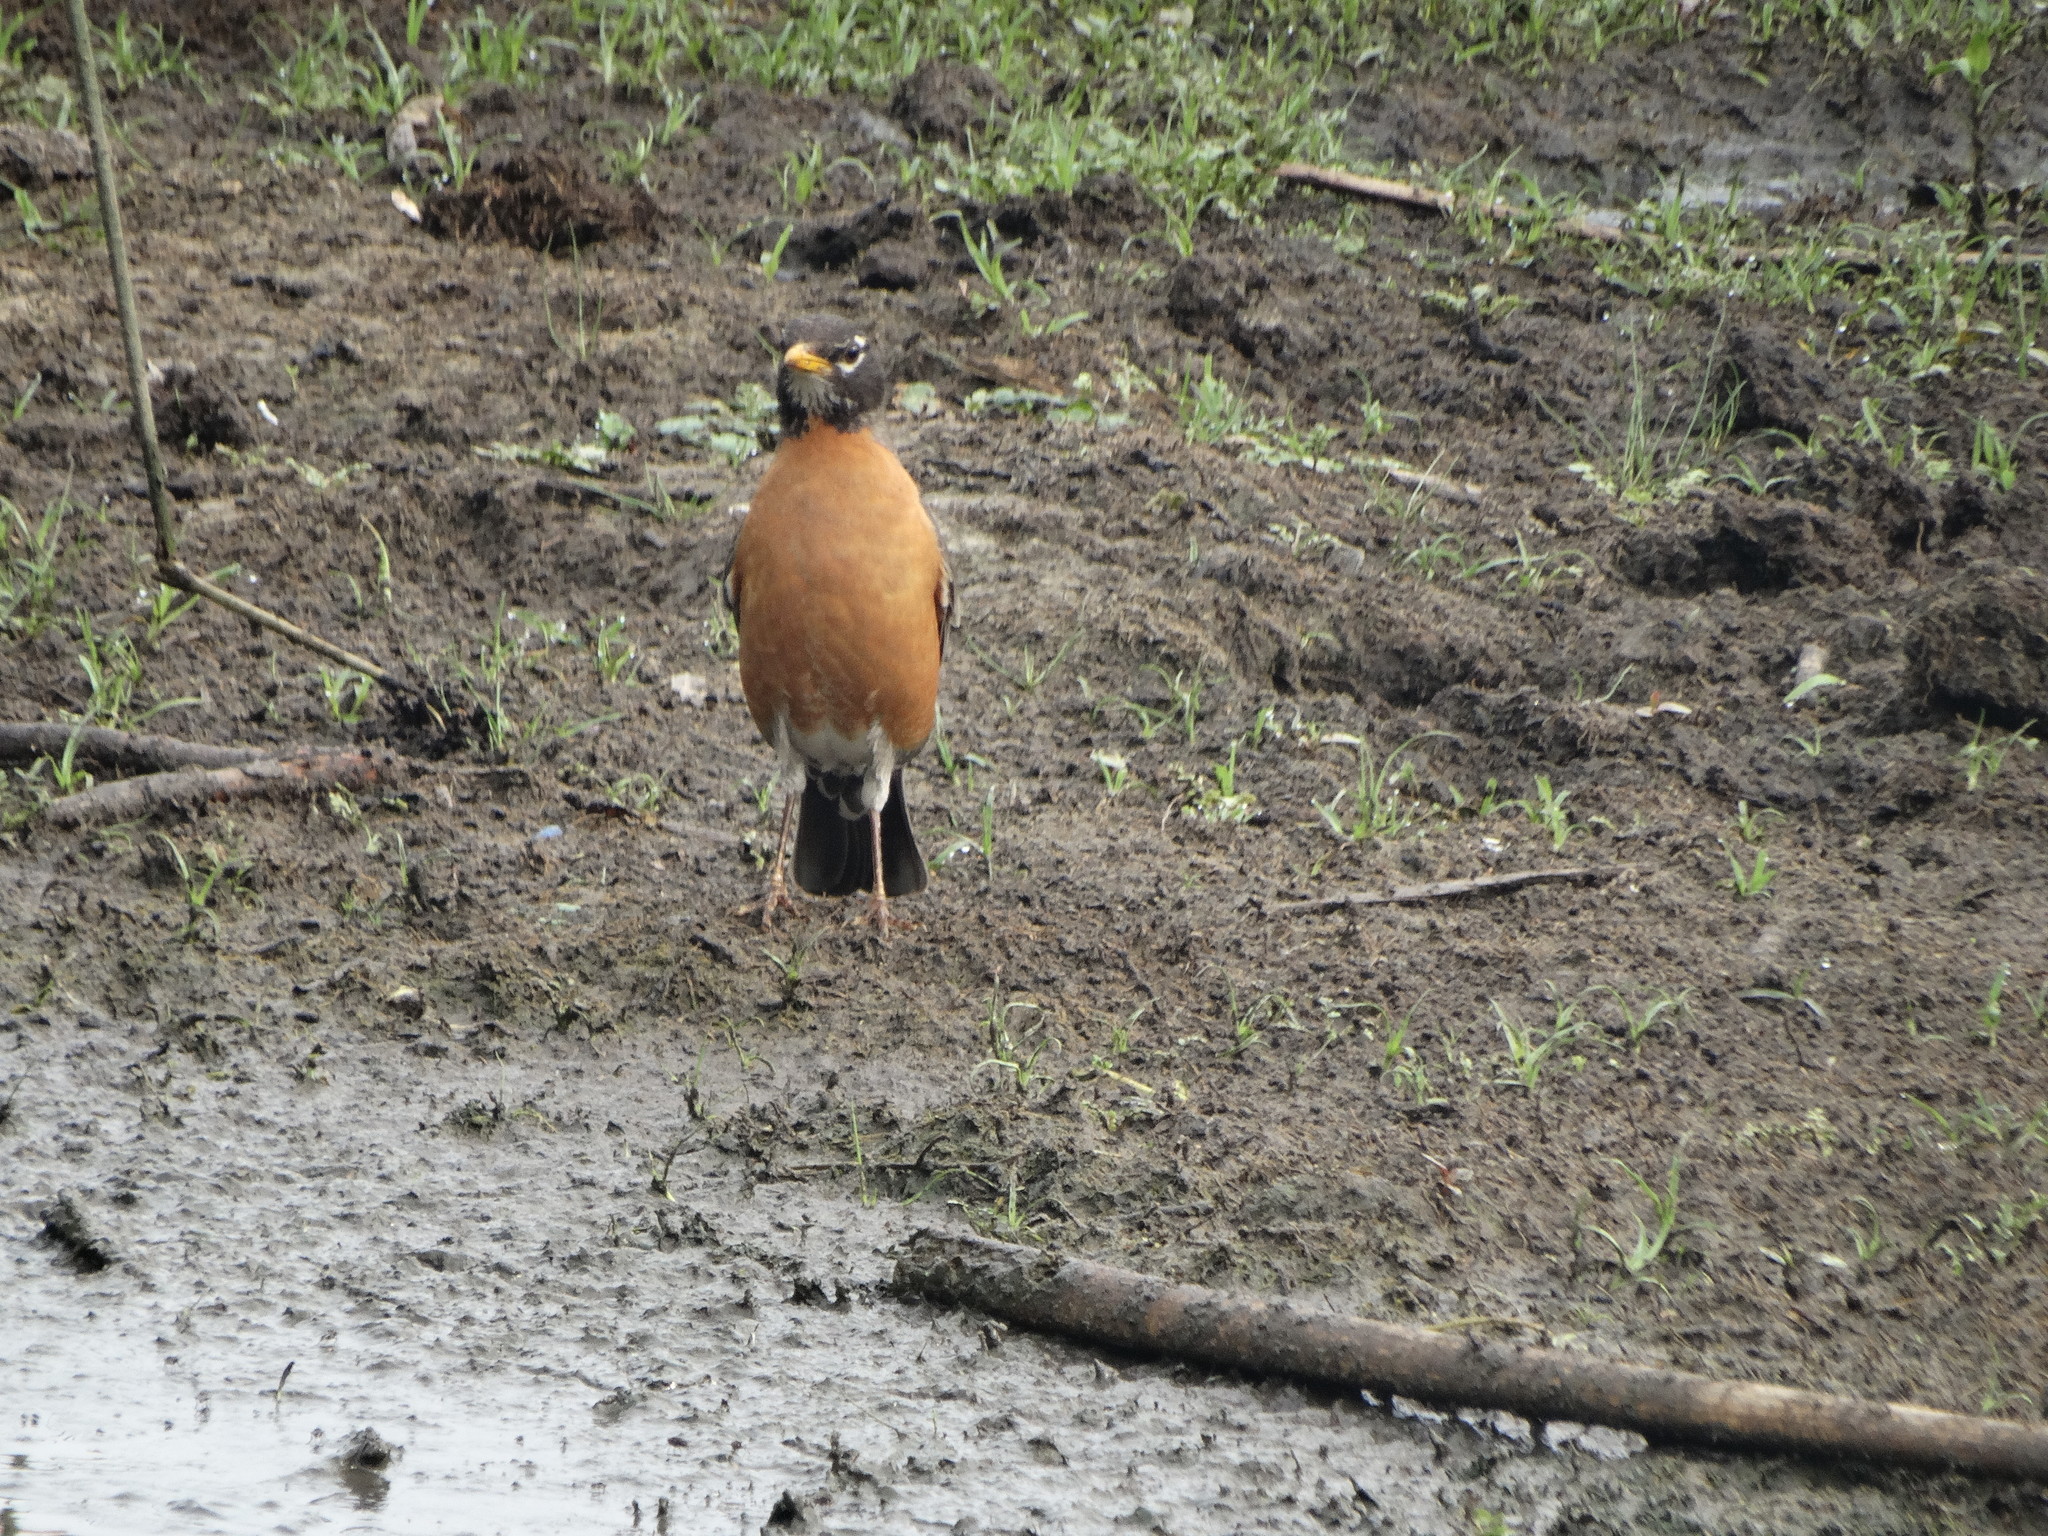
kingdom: Animalia
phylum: Chordata
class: Aves
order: Passeriformes
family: Turdidae
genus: Turdus
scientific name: Turdus migratorius
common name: American robin
